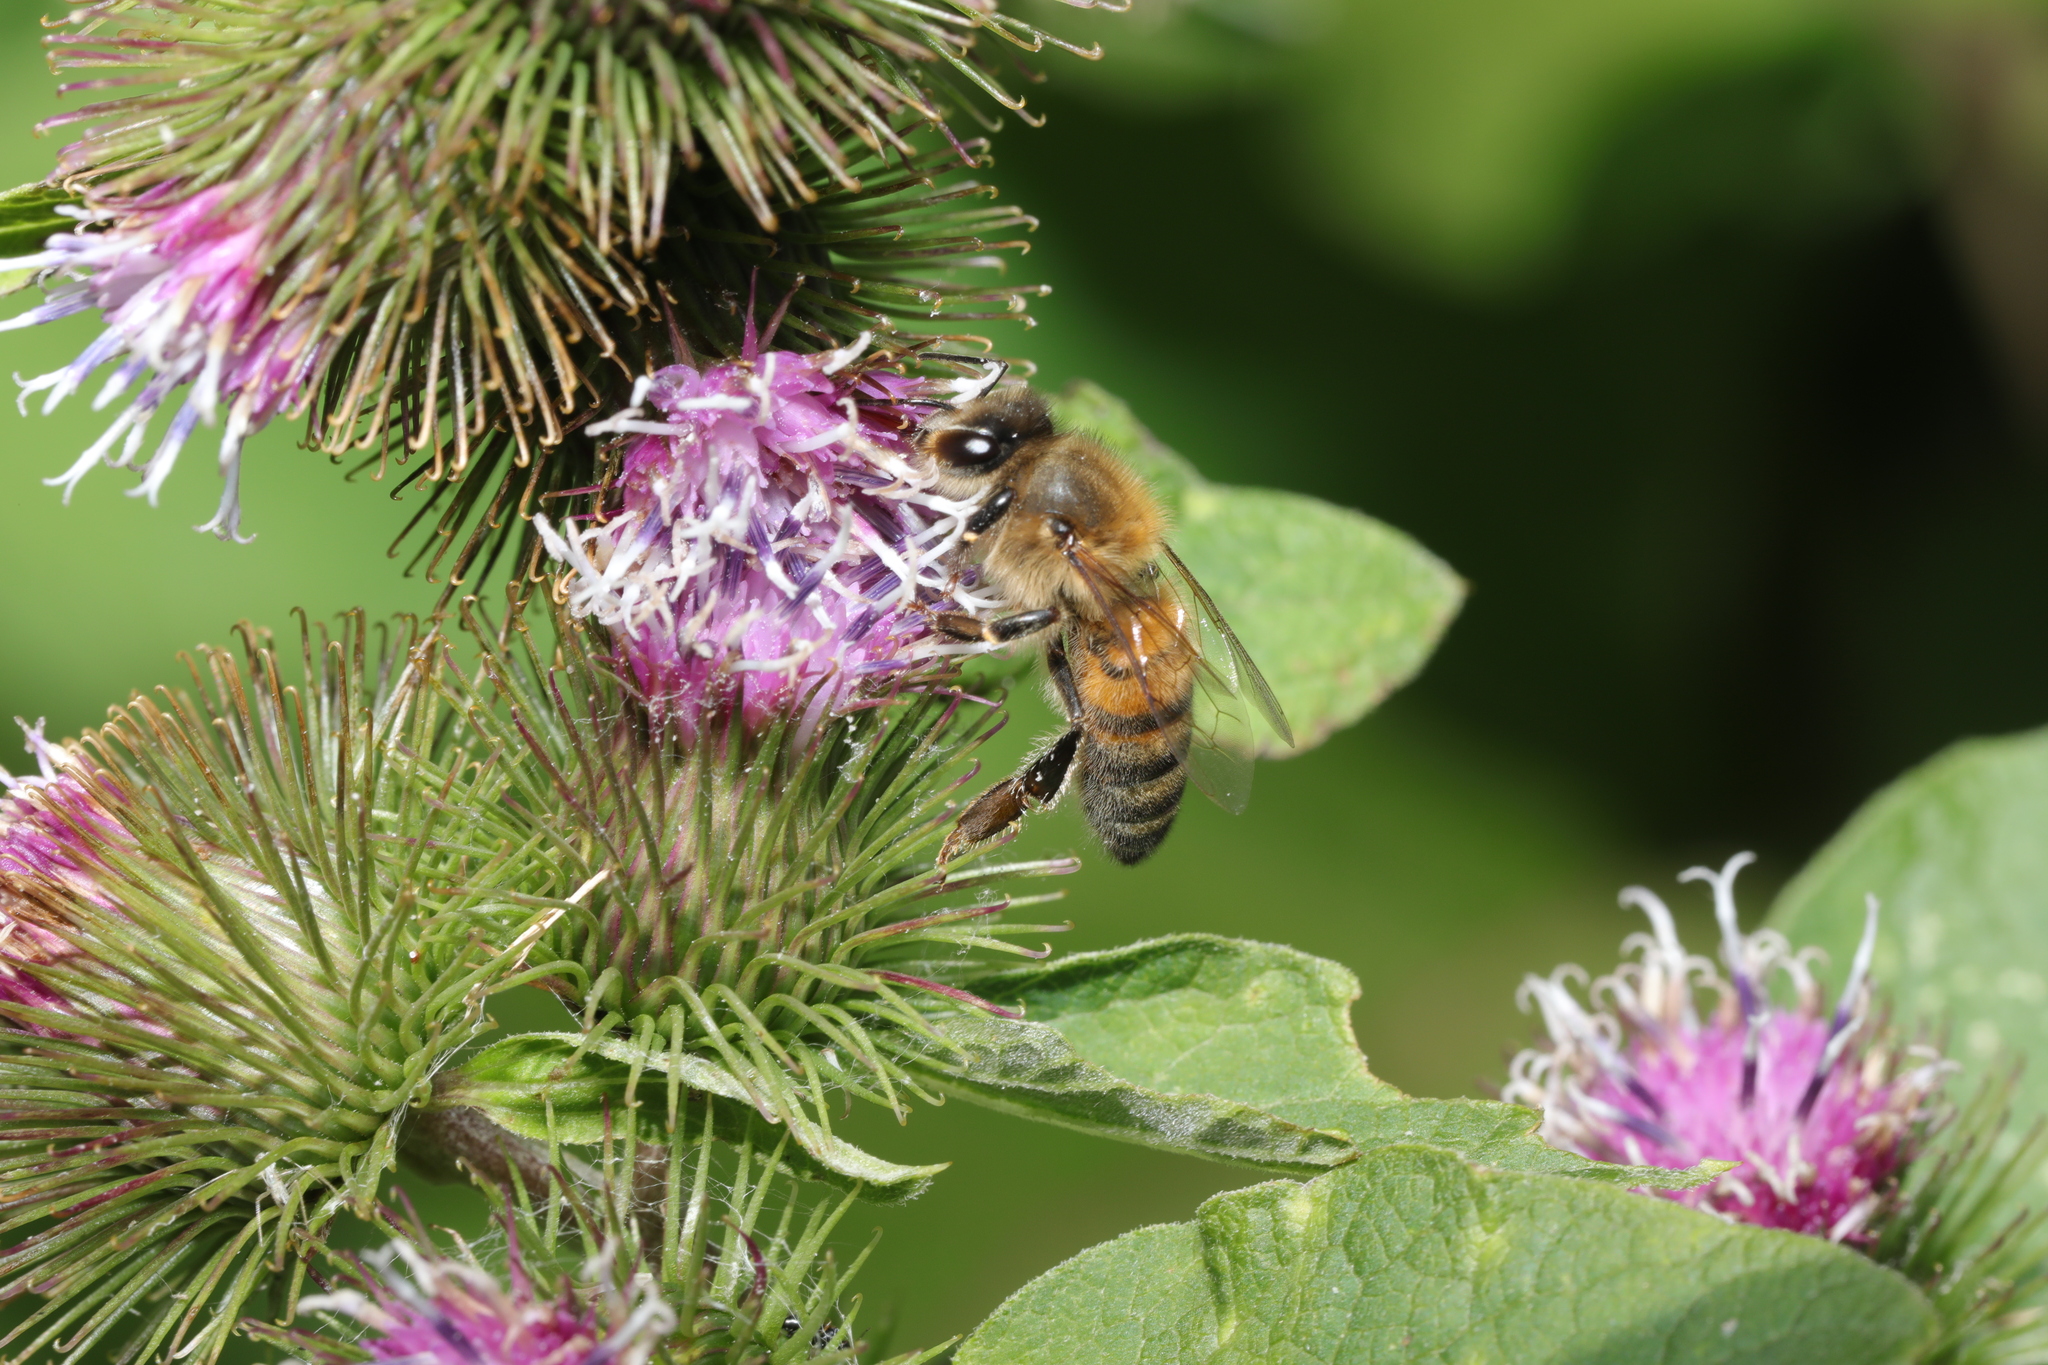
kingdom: Animalia
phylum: Arthropoda
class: Insecta
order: Hymenoptera
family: Apidae
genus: Apis
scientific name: Apis mellifera
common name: Honey bee
